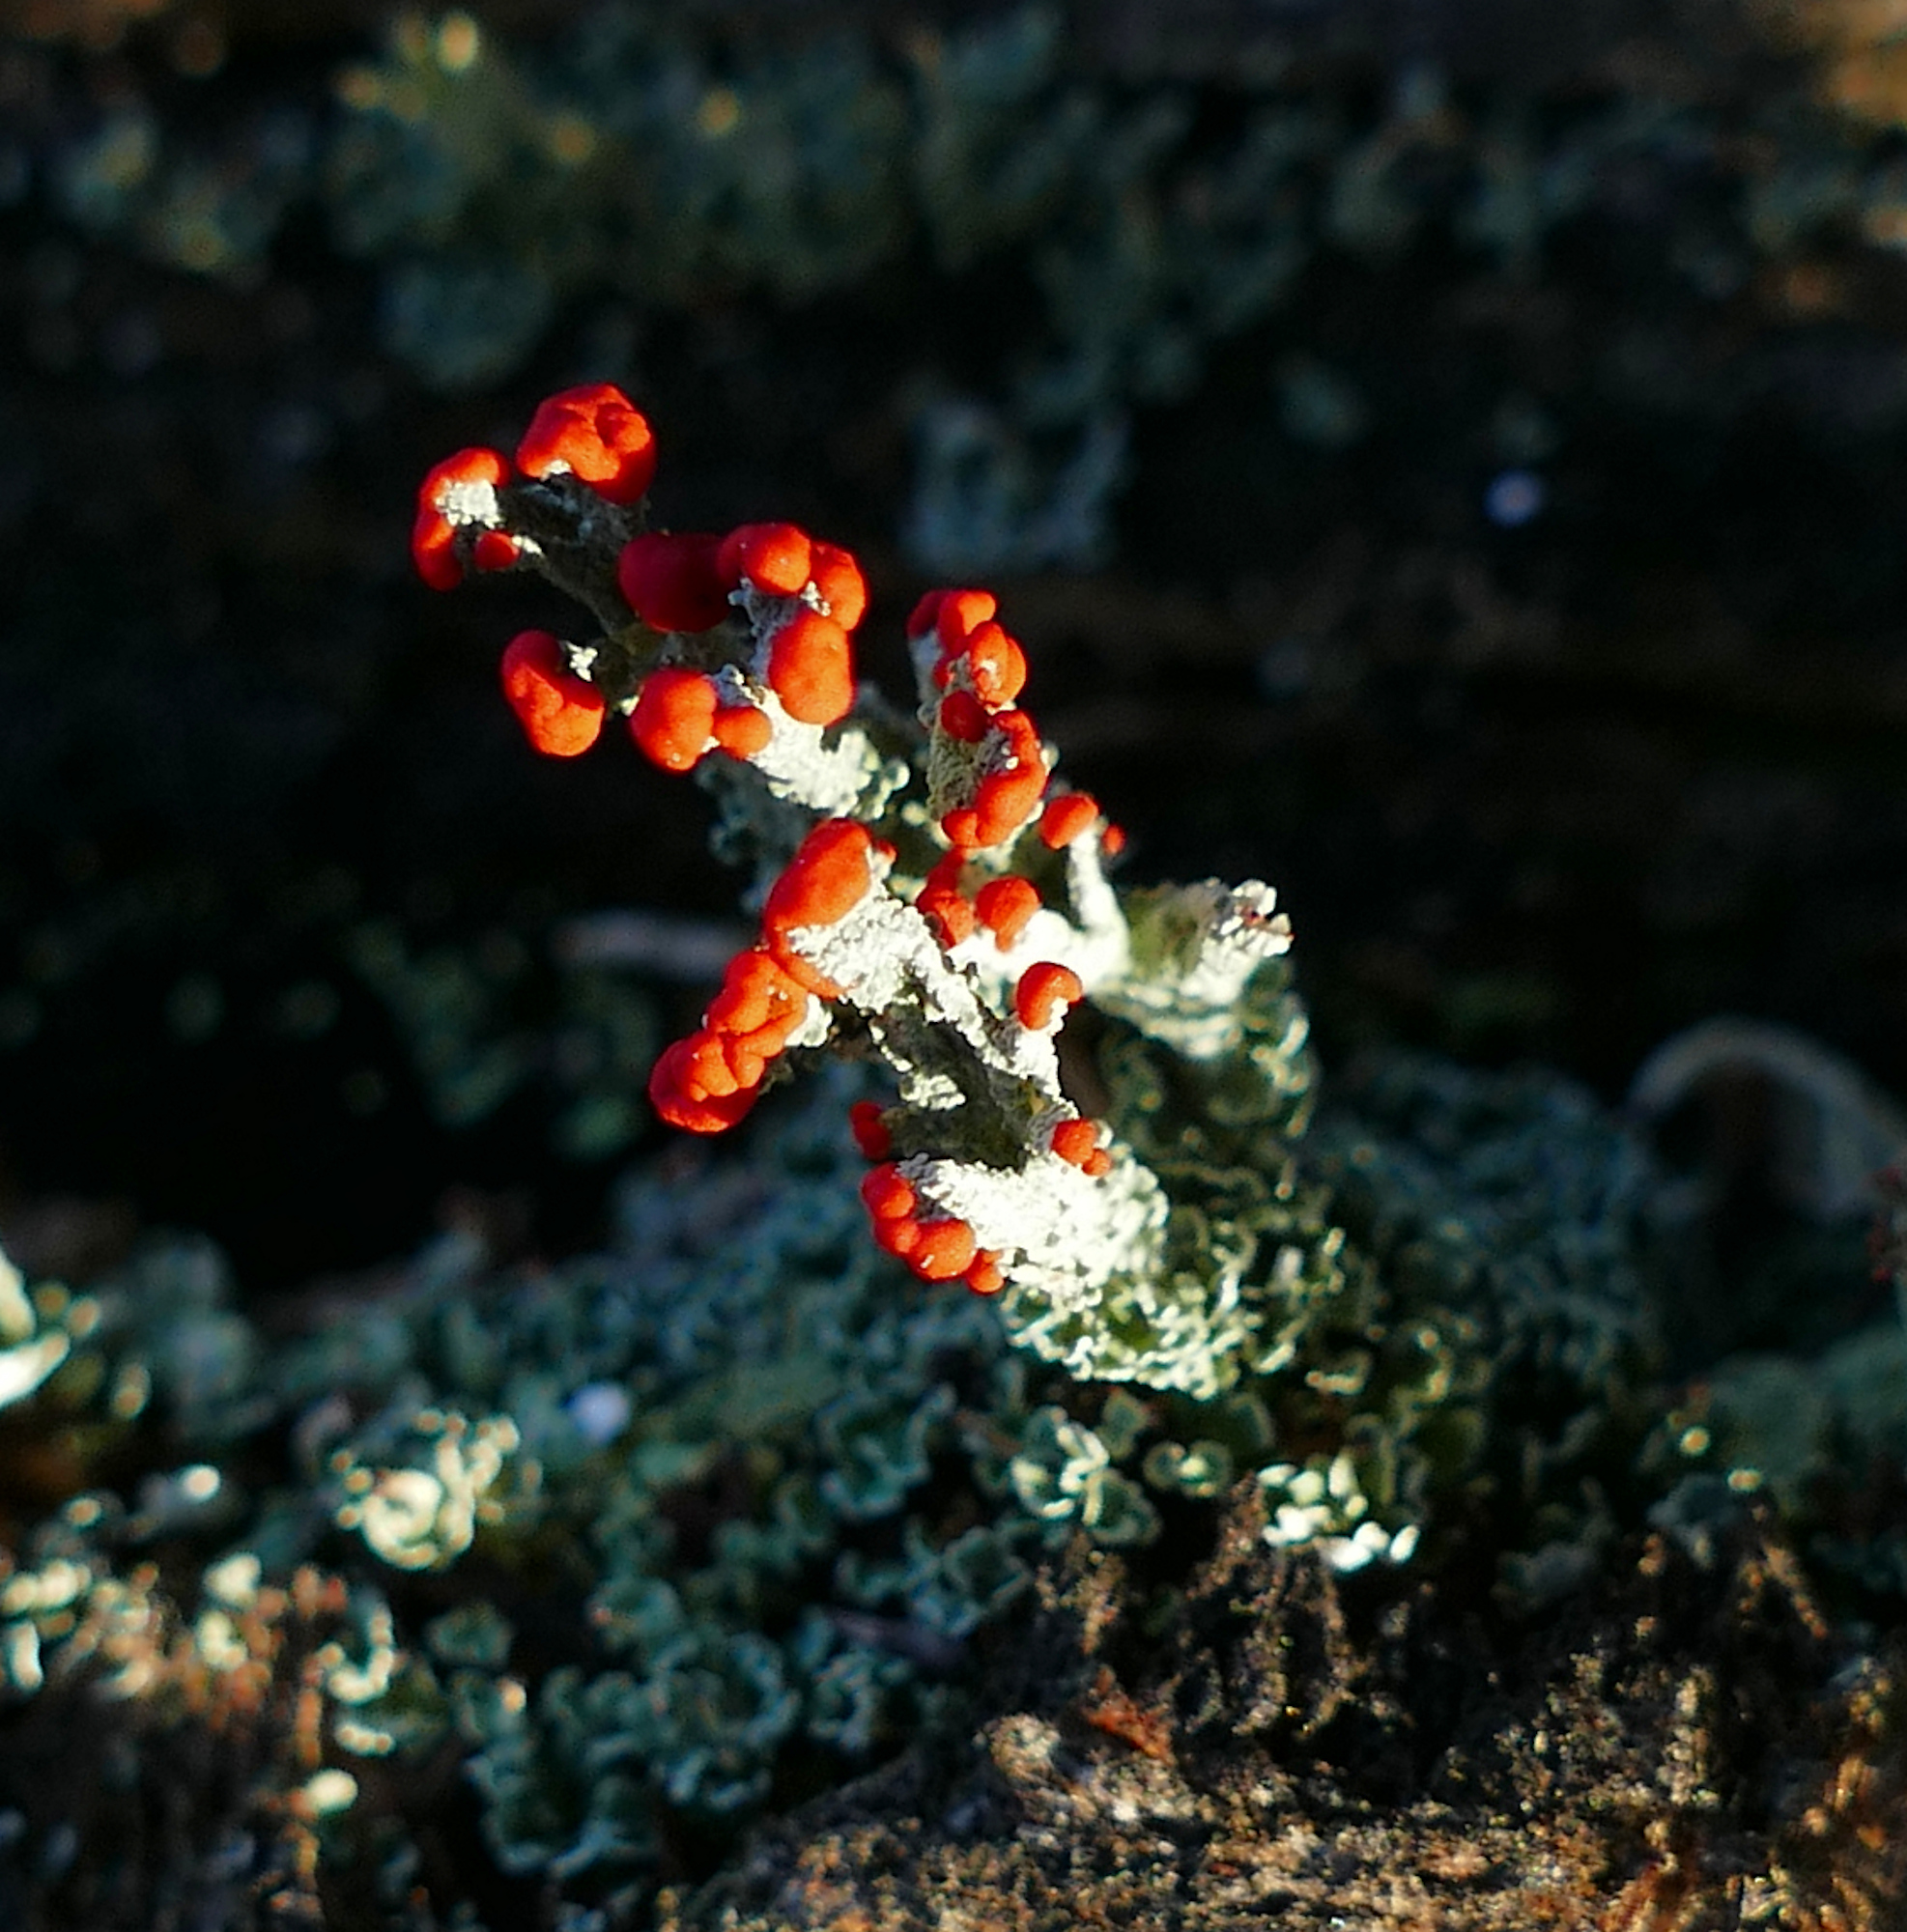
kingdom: Fungi
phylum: Ascomycota
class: Lecanoromycetes
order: Lecanorales
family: Cladoniaceae
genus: Cladonia
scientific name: Cladonia cristatella
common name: British soldier lichen
